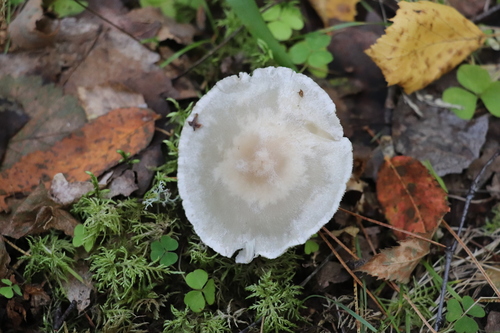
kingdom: Fungi
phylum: Basidiomycota
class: Agaricomycetes
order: Agaricales
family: Tricholomataceae
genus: Clitocybe
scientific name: Clitocybe
